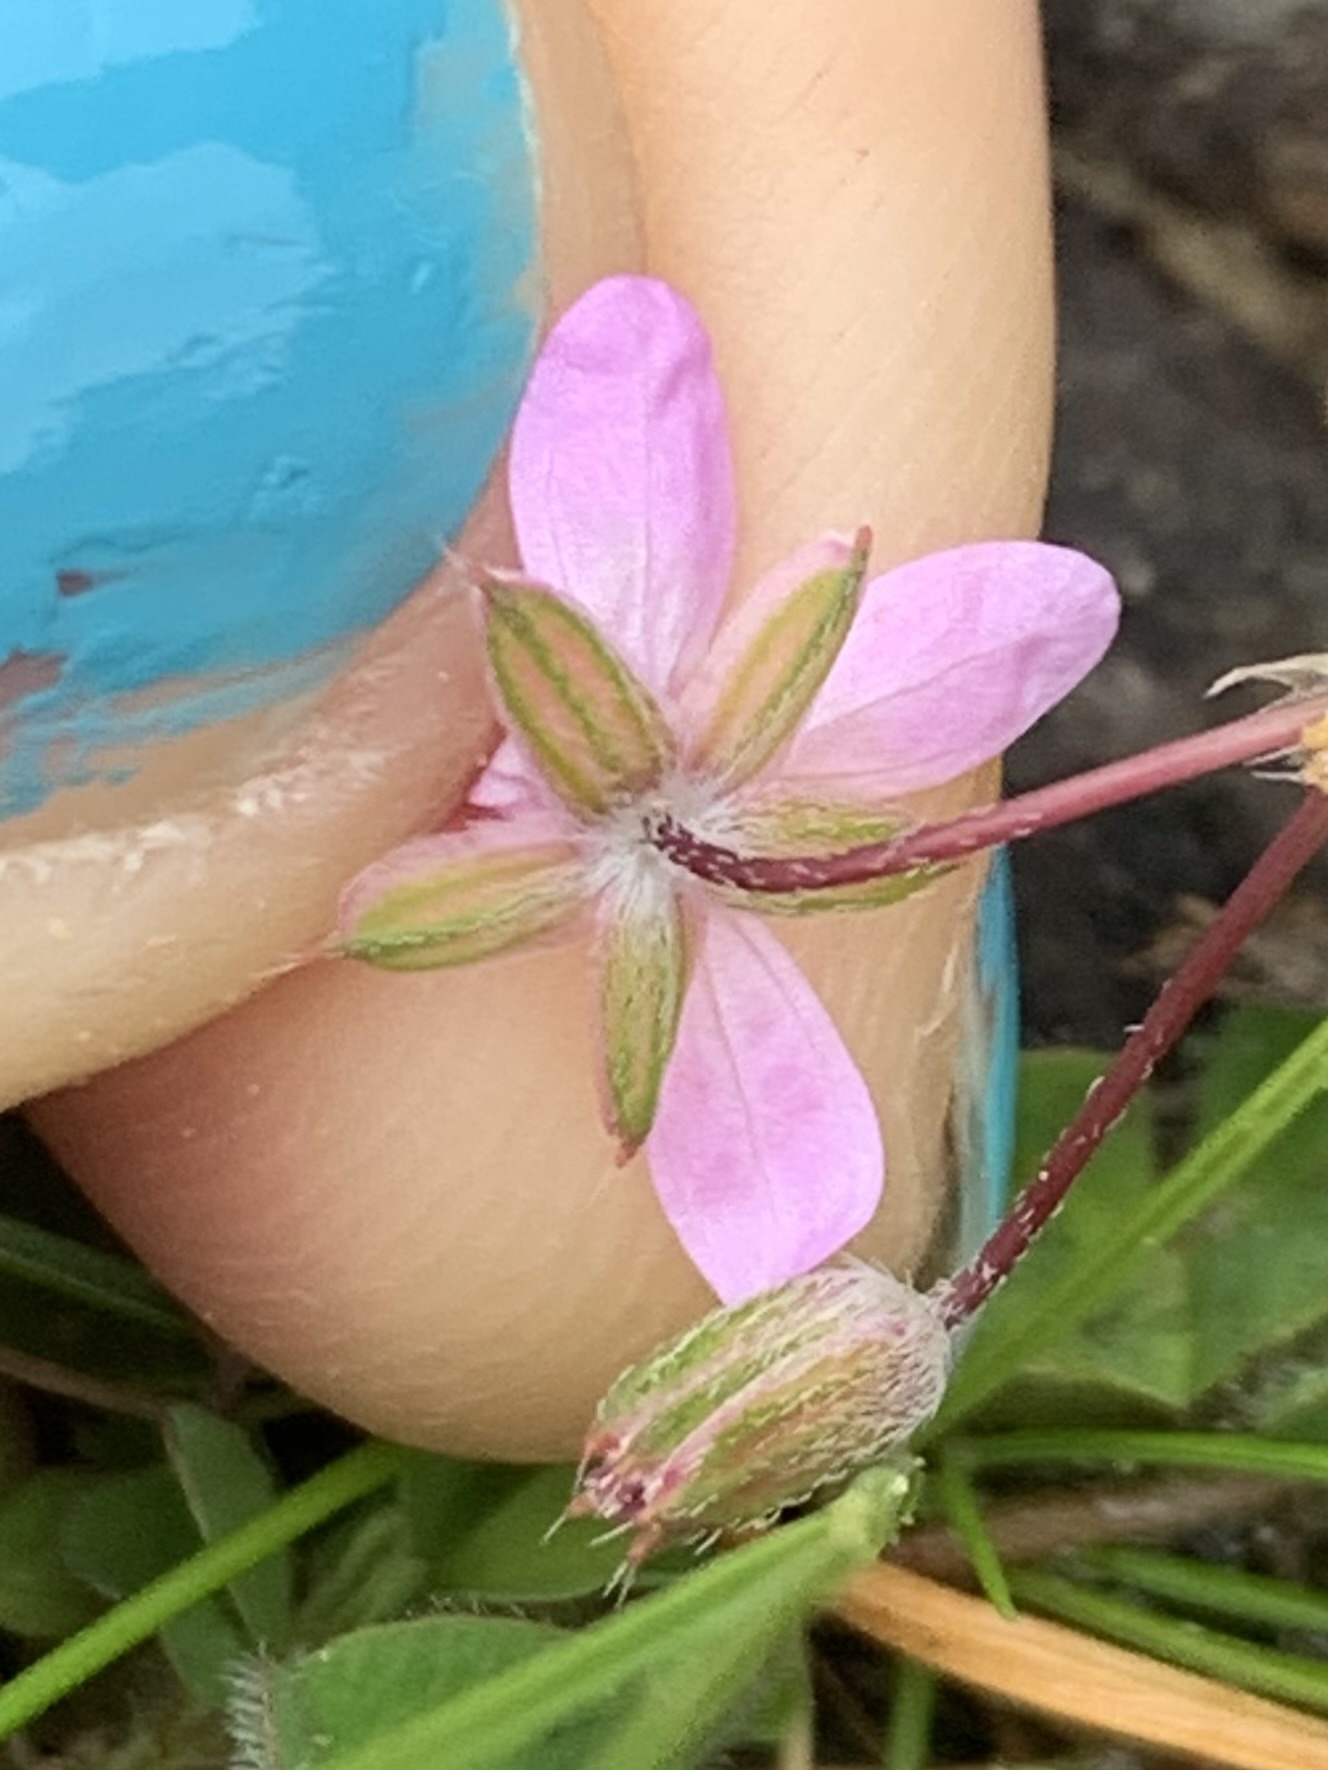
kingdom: Plantae
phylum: Tracheophyta
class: Magnoliopsida
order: Geraniales
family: Geraniaceae
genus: Erodium
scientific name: Erodium cicutarium
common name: Common stork's-bill
